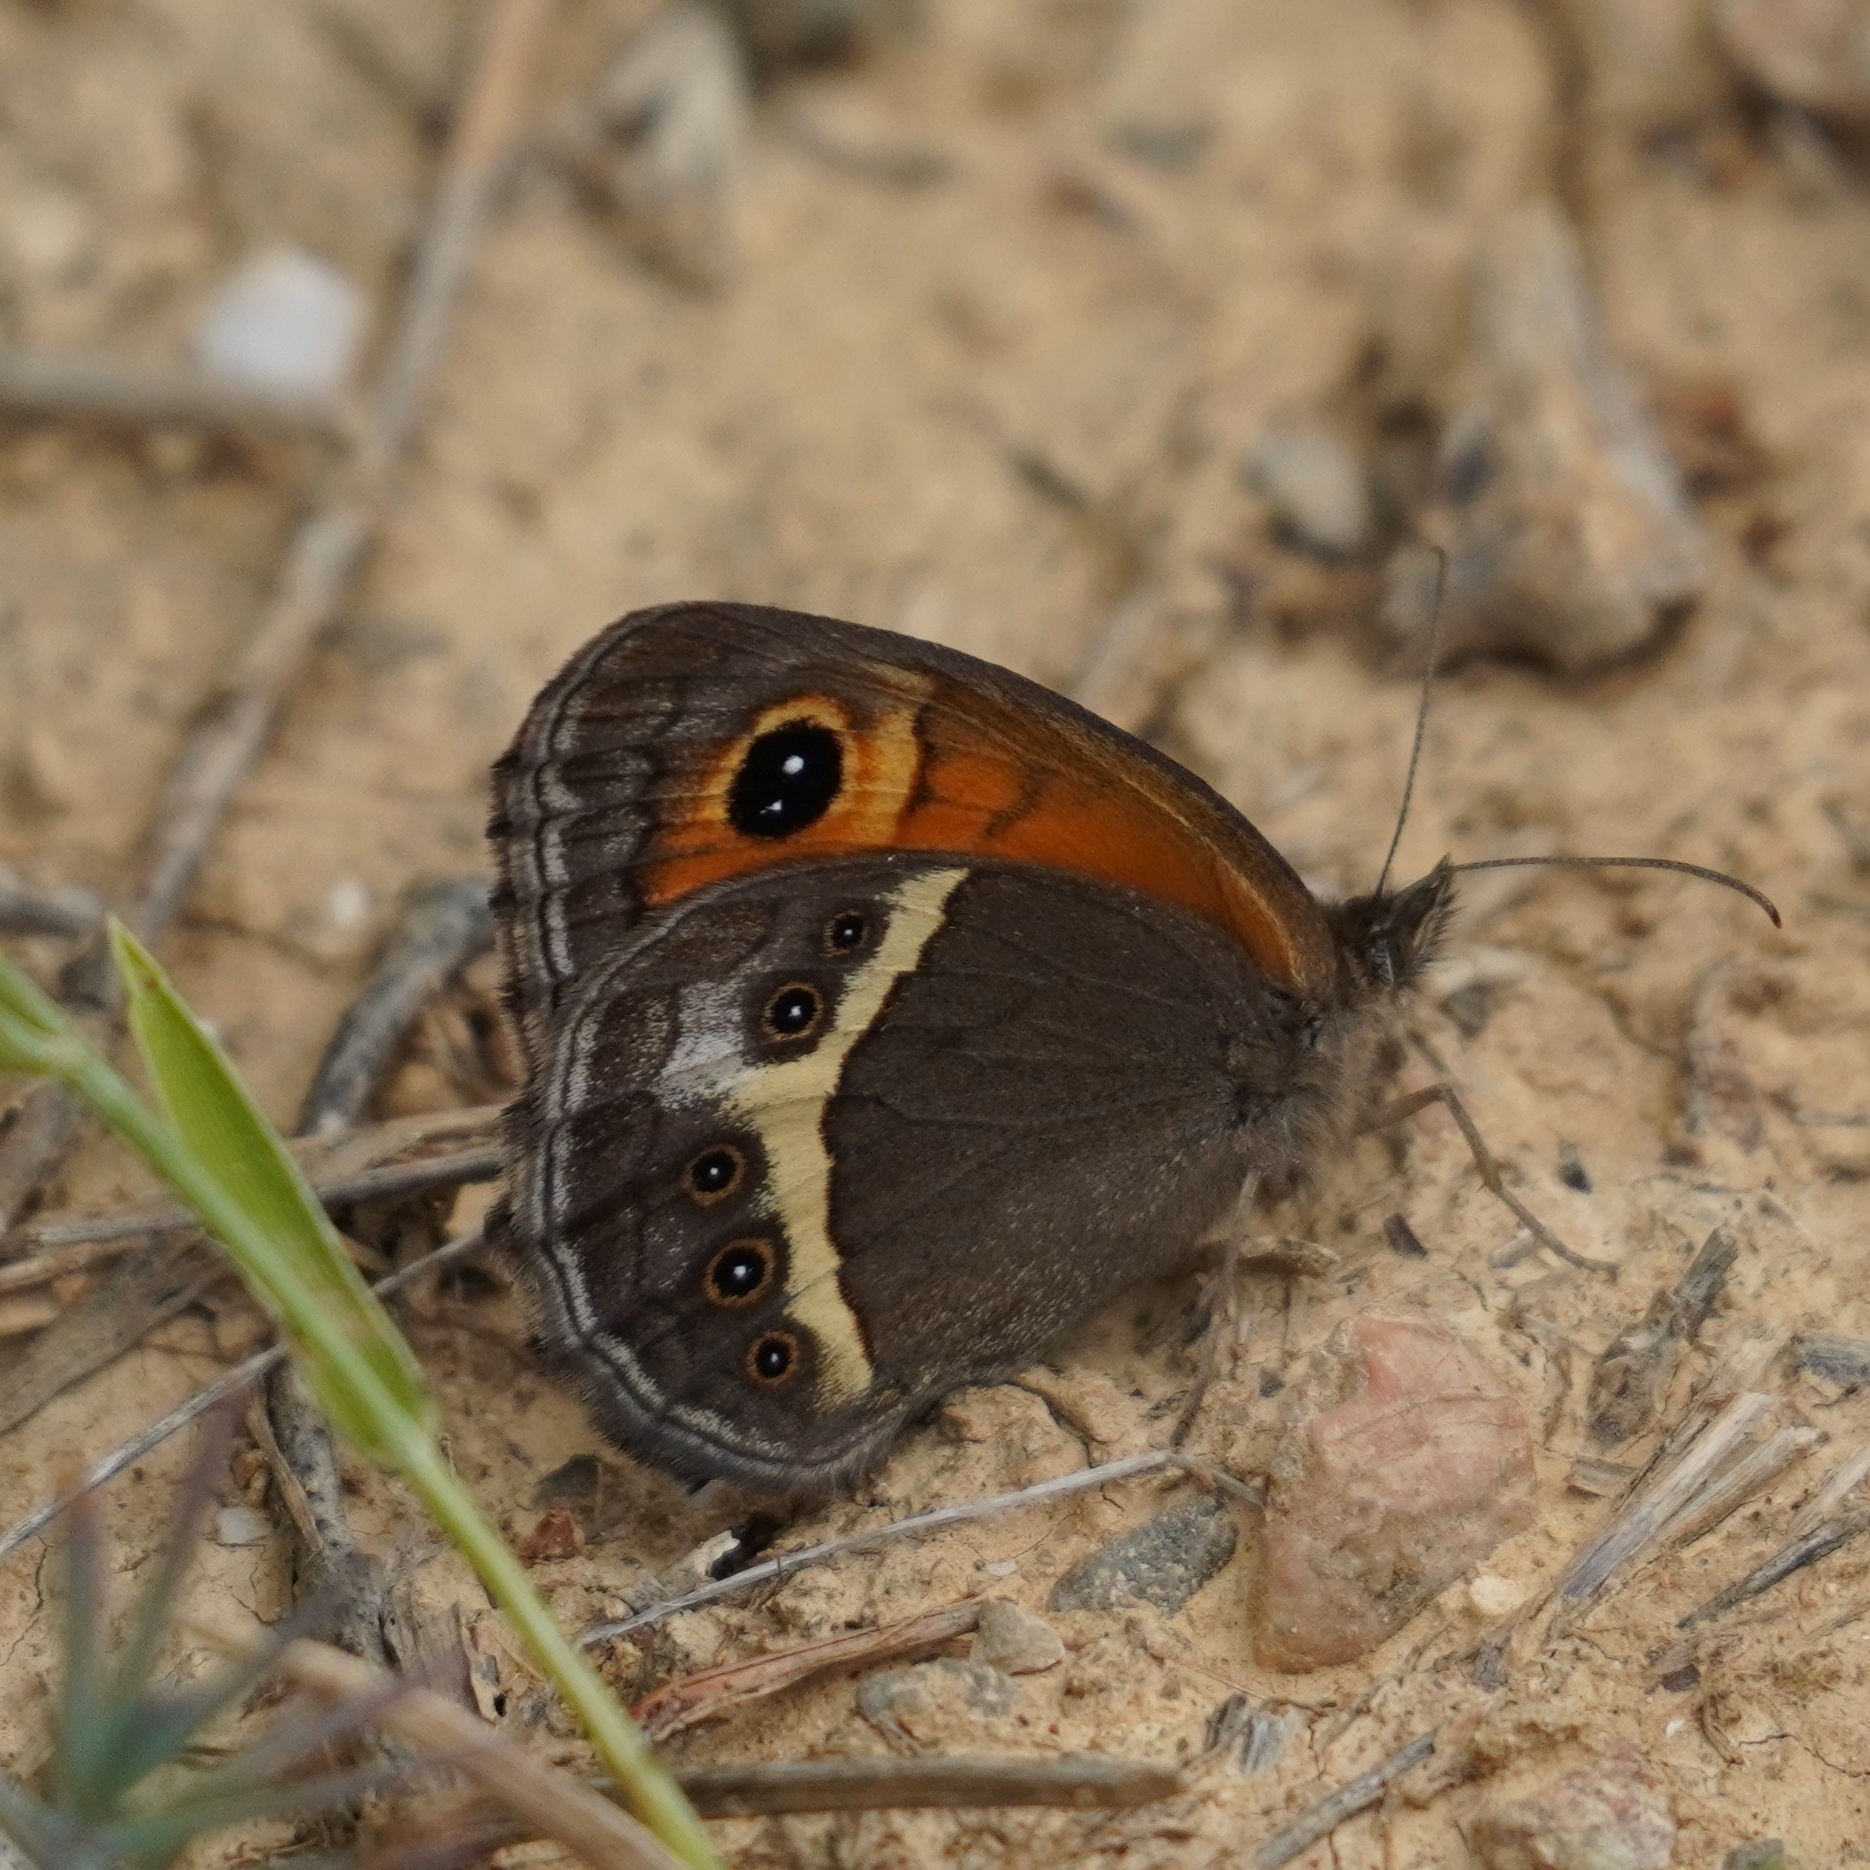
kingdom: Animalia
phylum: Arthropoda
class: Insecta
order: Lepidoptera
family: Nymphalidae
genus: Pyronia
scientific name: Pyronia bathseba
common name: Spanish gatekeeper
